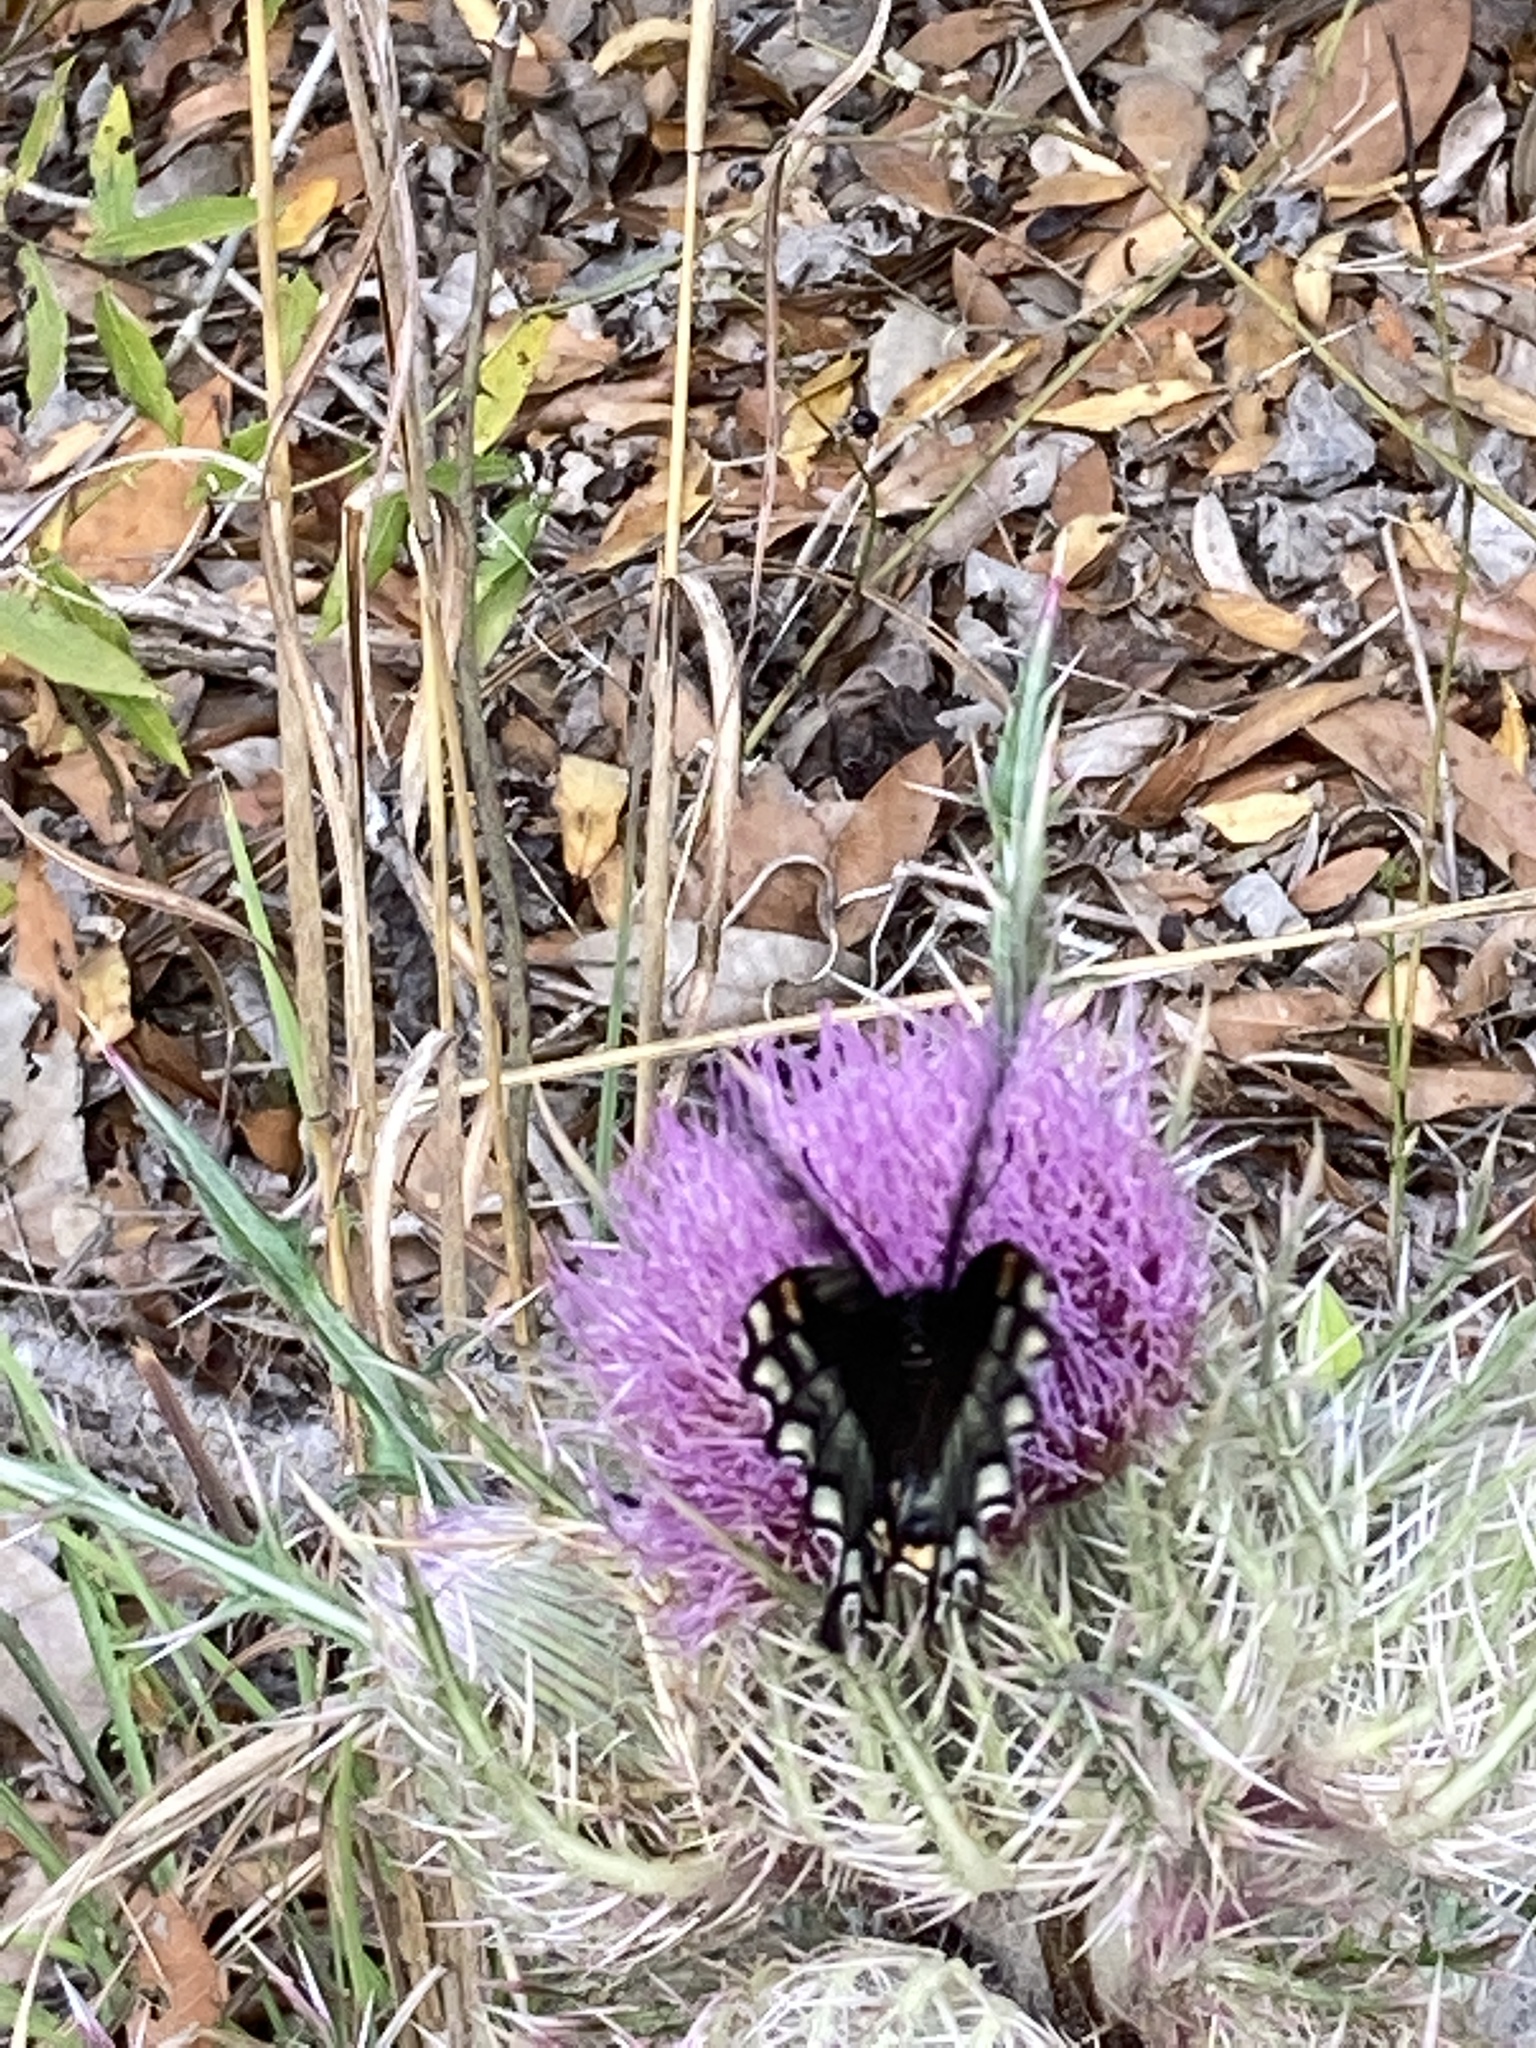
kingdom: Animalia
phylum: Arthropoda
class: Insecta
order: Lepidoptera
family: Papilionidae
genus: Papilio
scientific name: Papilio troilus
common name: Spicebush swallowtail
